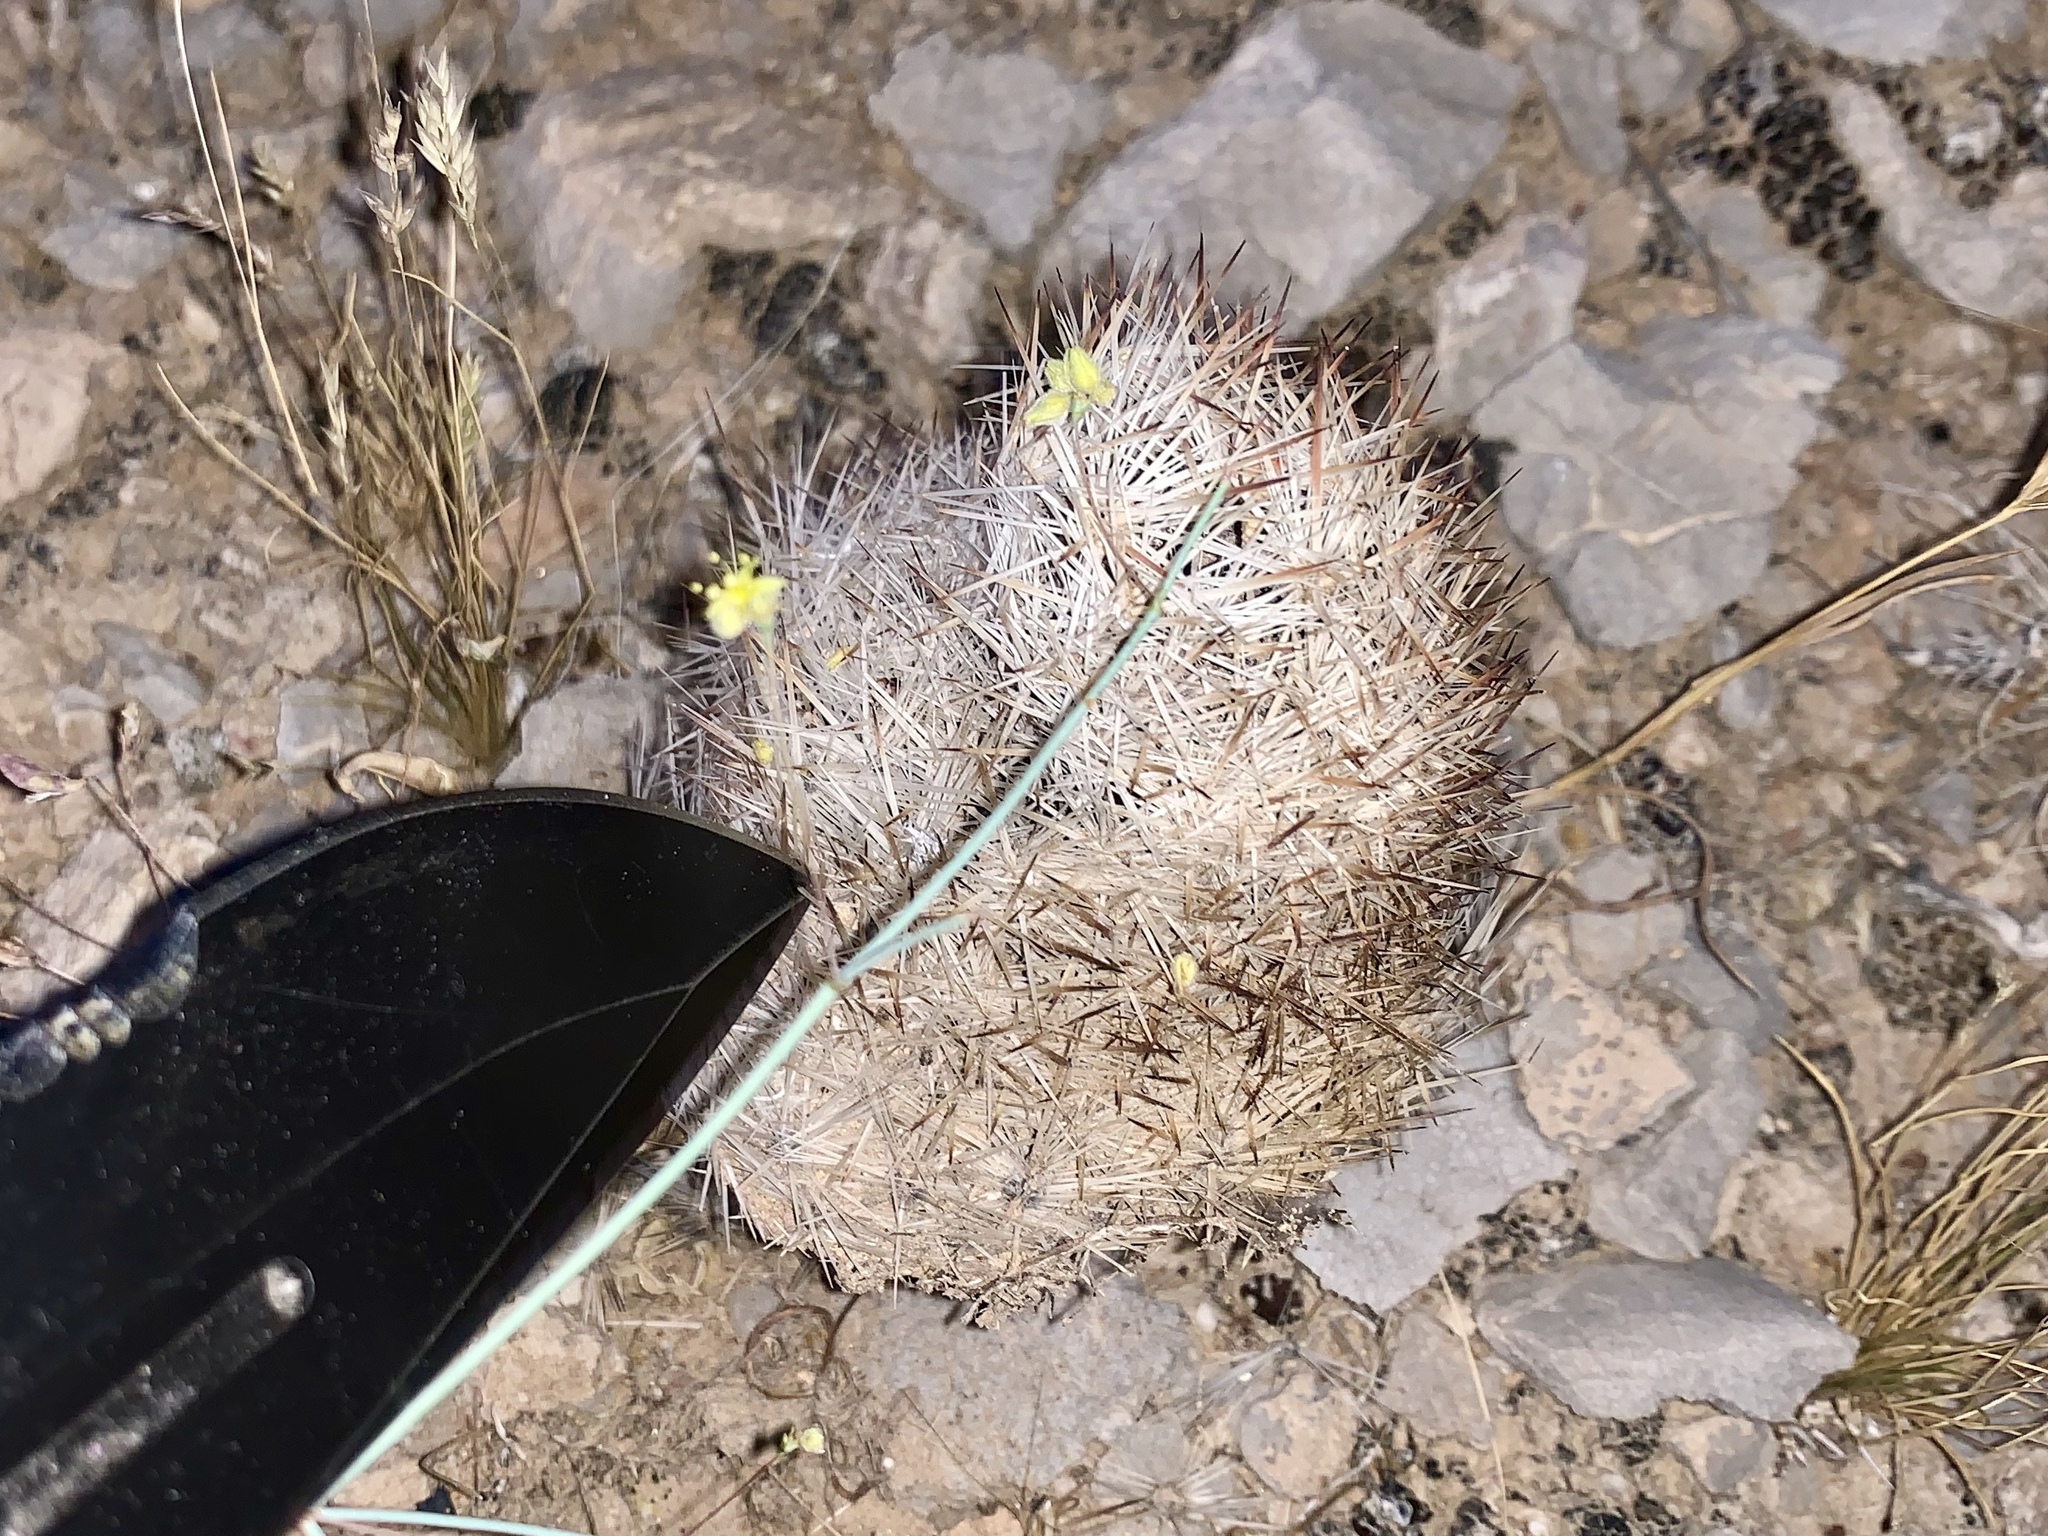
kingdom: Plantae
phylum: Tracheophyta
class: Magnoliopsida
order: Caryophyllales
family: Cactaceae
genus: Pelecyphora
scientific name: Pelecyphora dasyacantha
